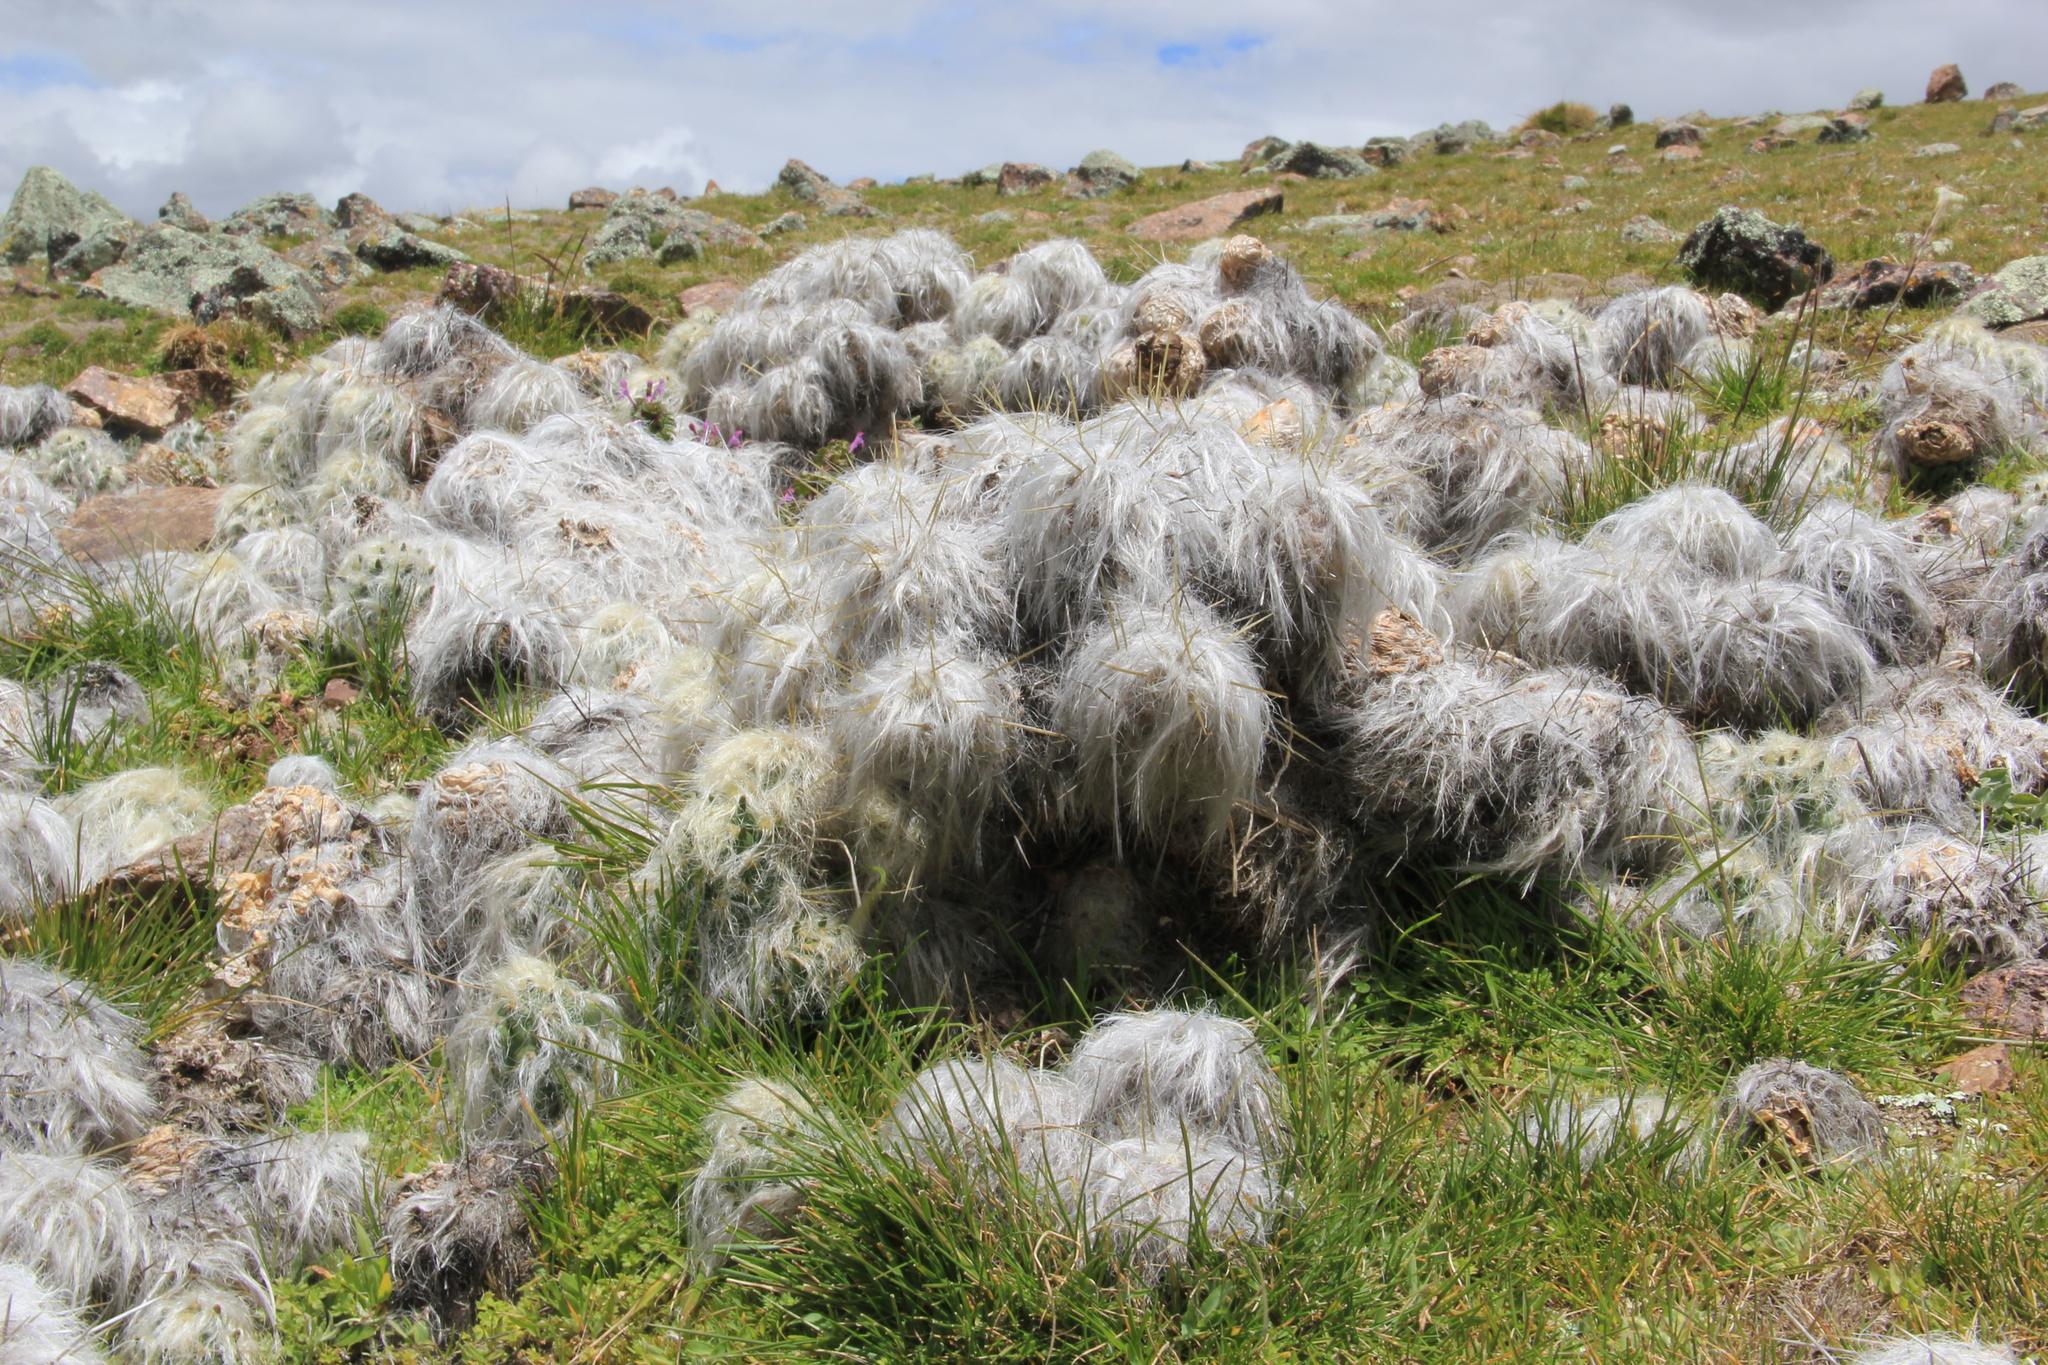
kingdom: Plantae
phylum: Tracheophyta
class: Magnoliopsida
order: Caryophyllales
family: Cactaceae
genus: Austrocylindropuntia
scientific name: Austrocylindropuntia floccosa
